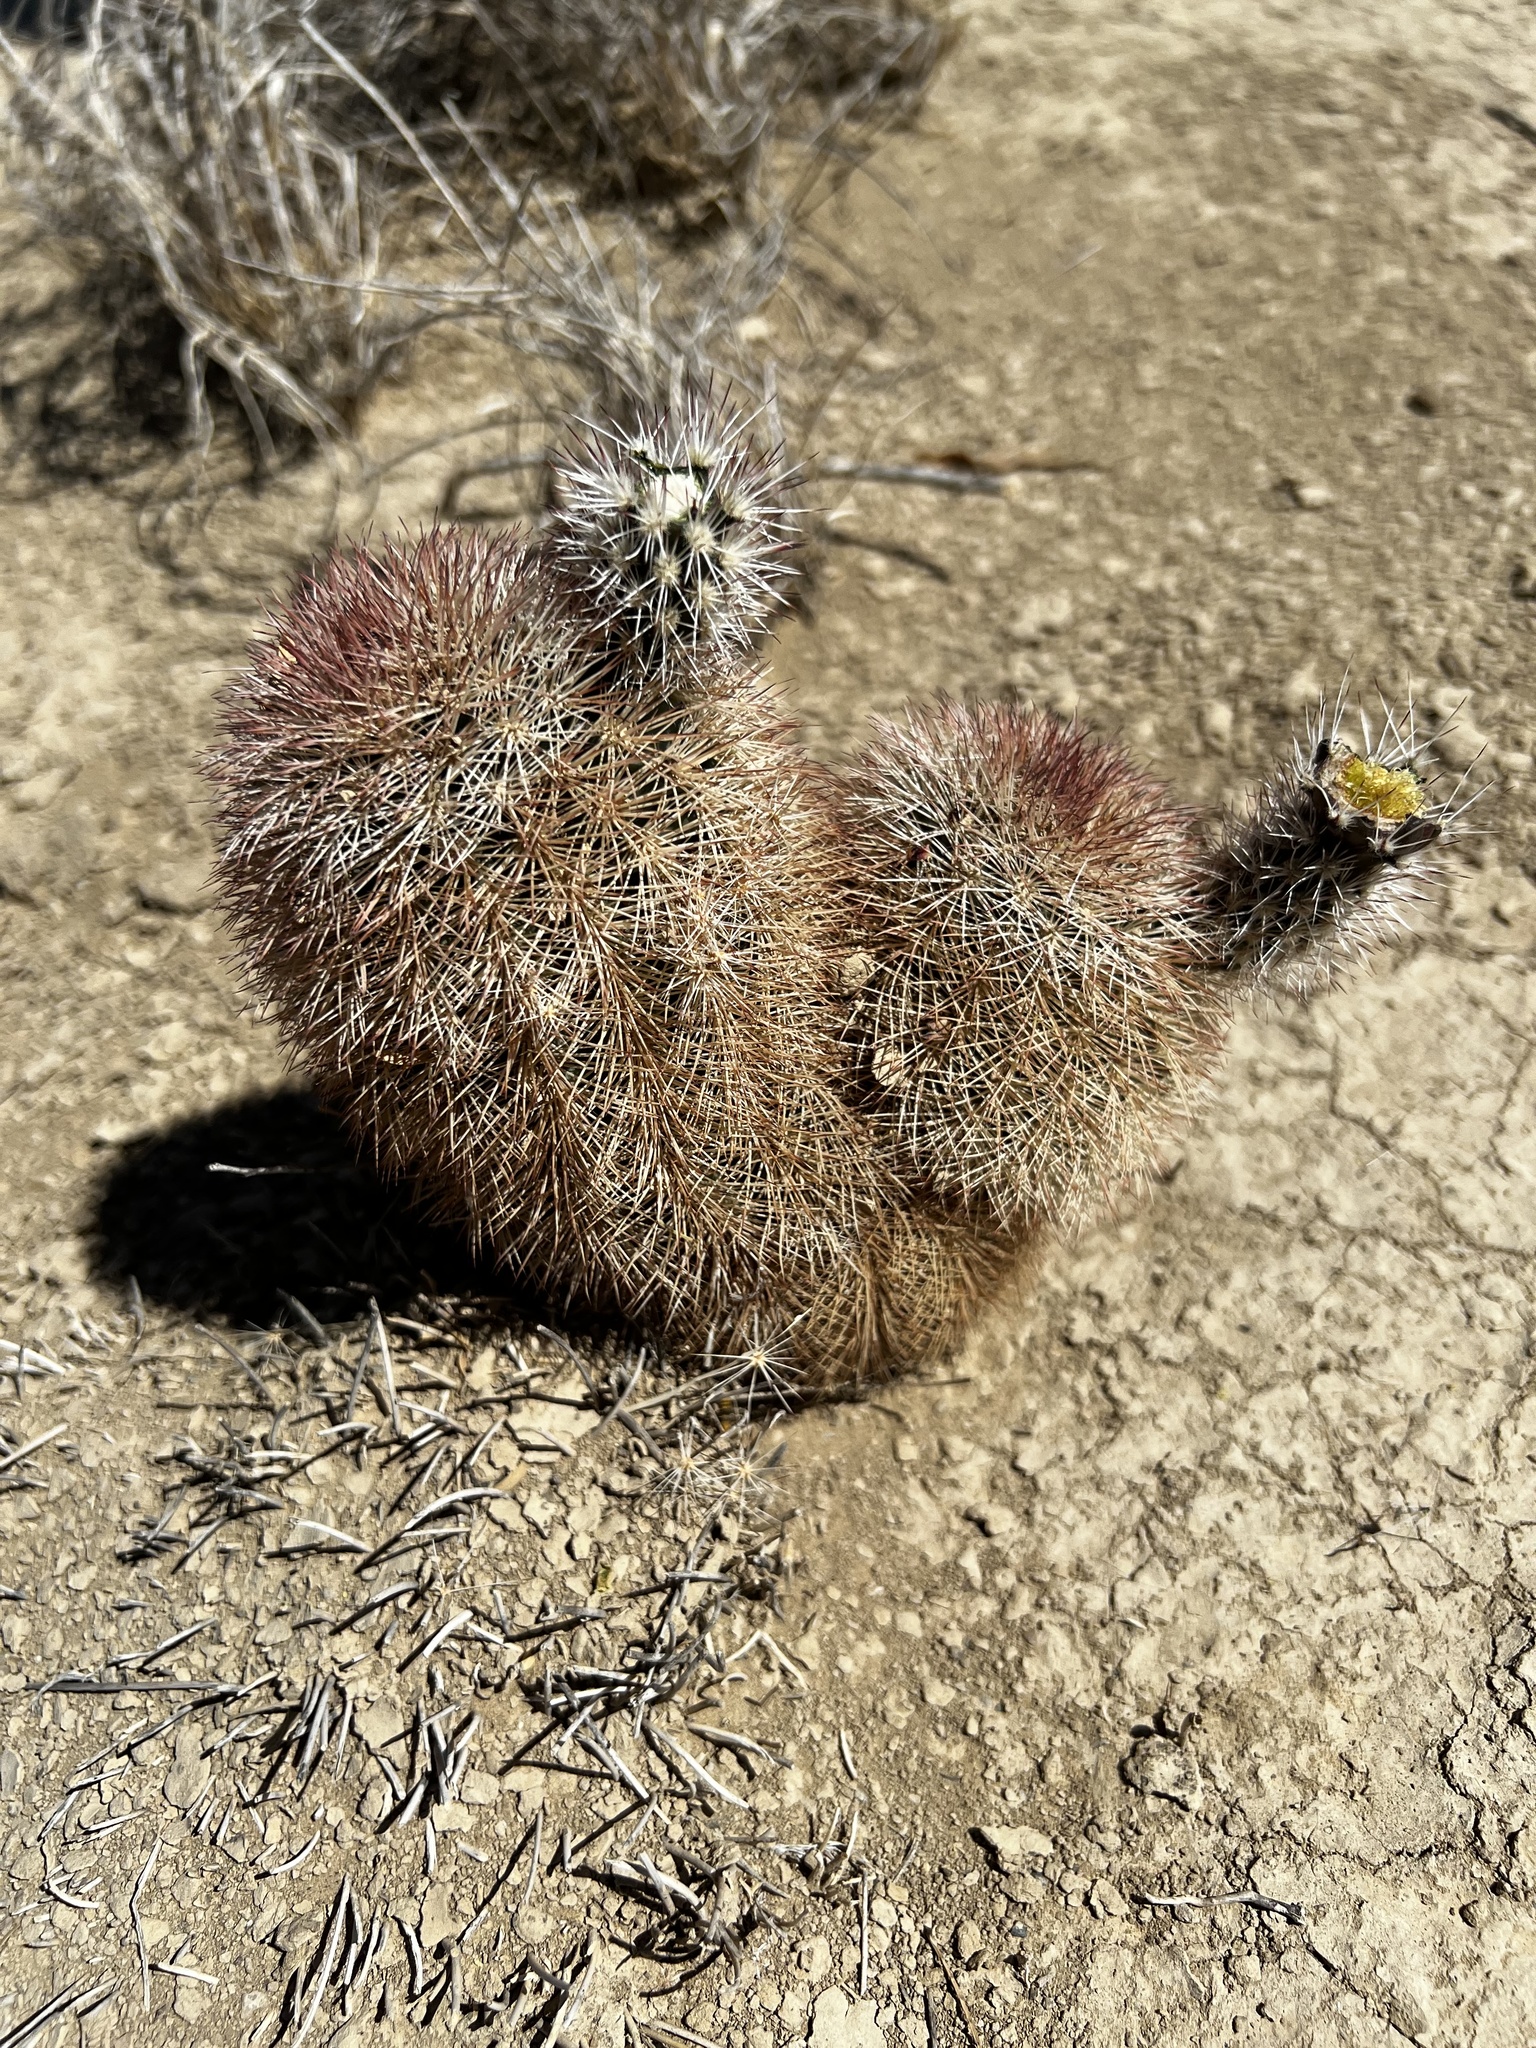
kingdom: Plantae
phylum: Tracheophyta
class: Magnoliopsida
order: Caryophyllales
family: Cactaceae
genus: Echinocereus
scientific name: Echinocereus dasyacanthus
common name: Spiny hedgehog cactus
